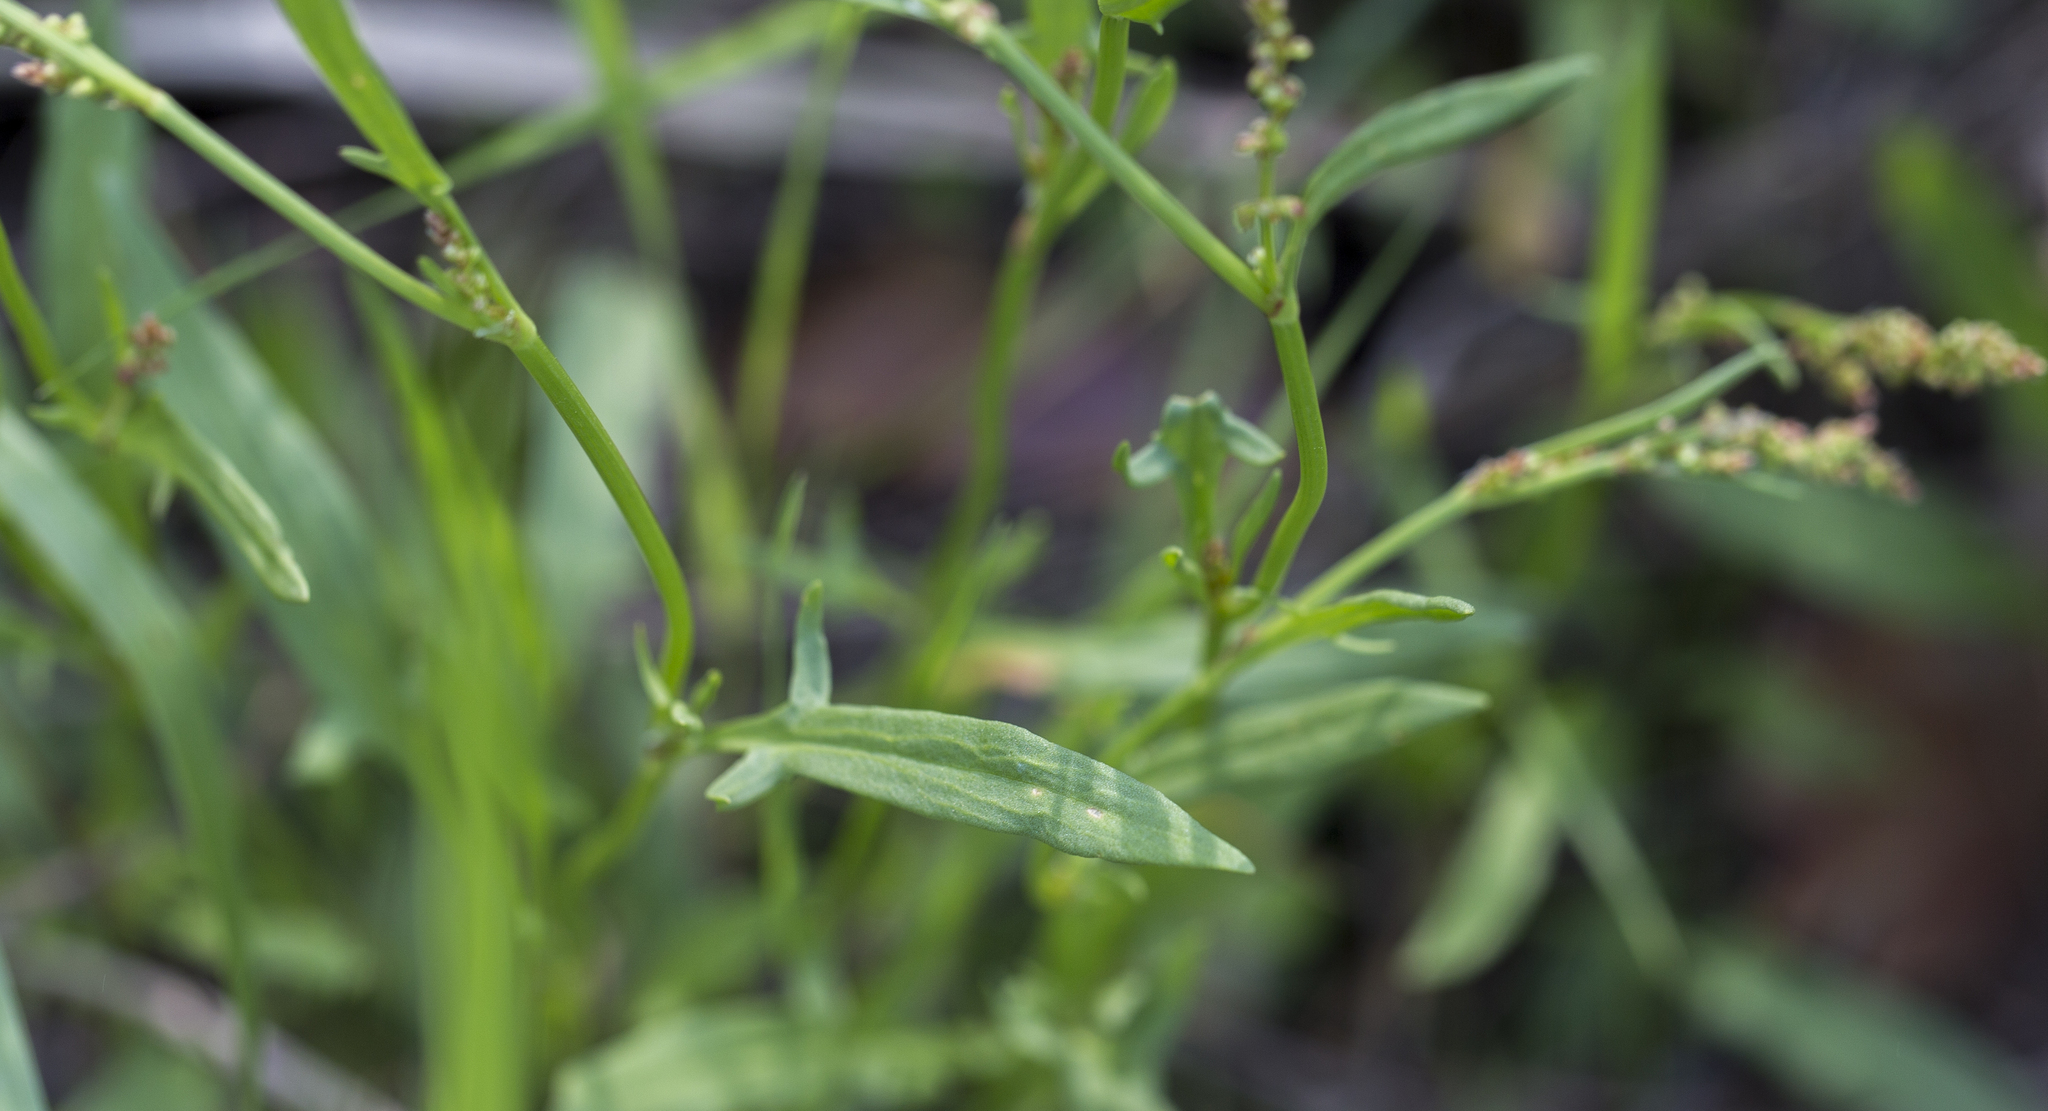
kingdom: Plantae
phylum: Tracheophyta
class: Magnoliopsida
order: Caryophyllales
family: Polygonaceae
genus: Rumex
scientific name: Rumex acetosella
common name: Common sheep sorrel
